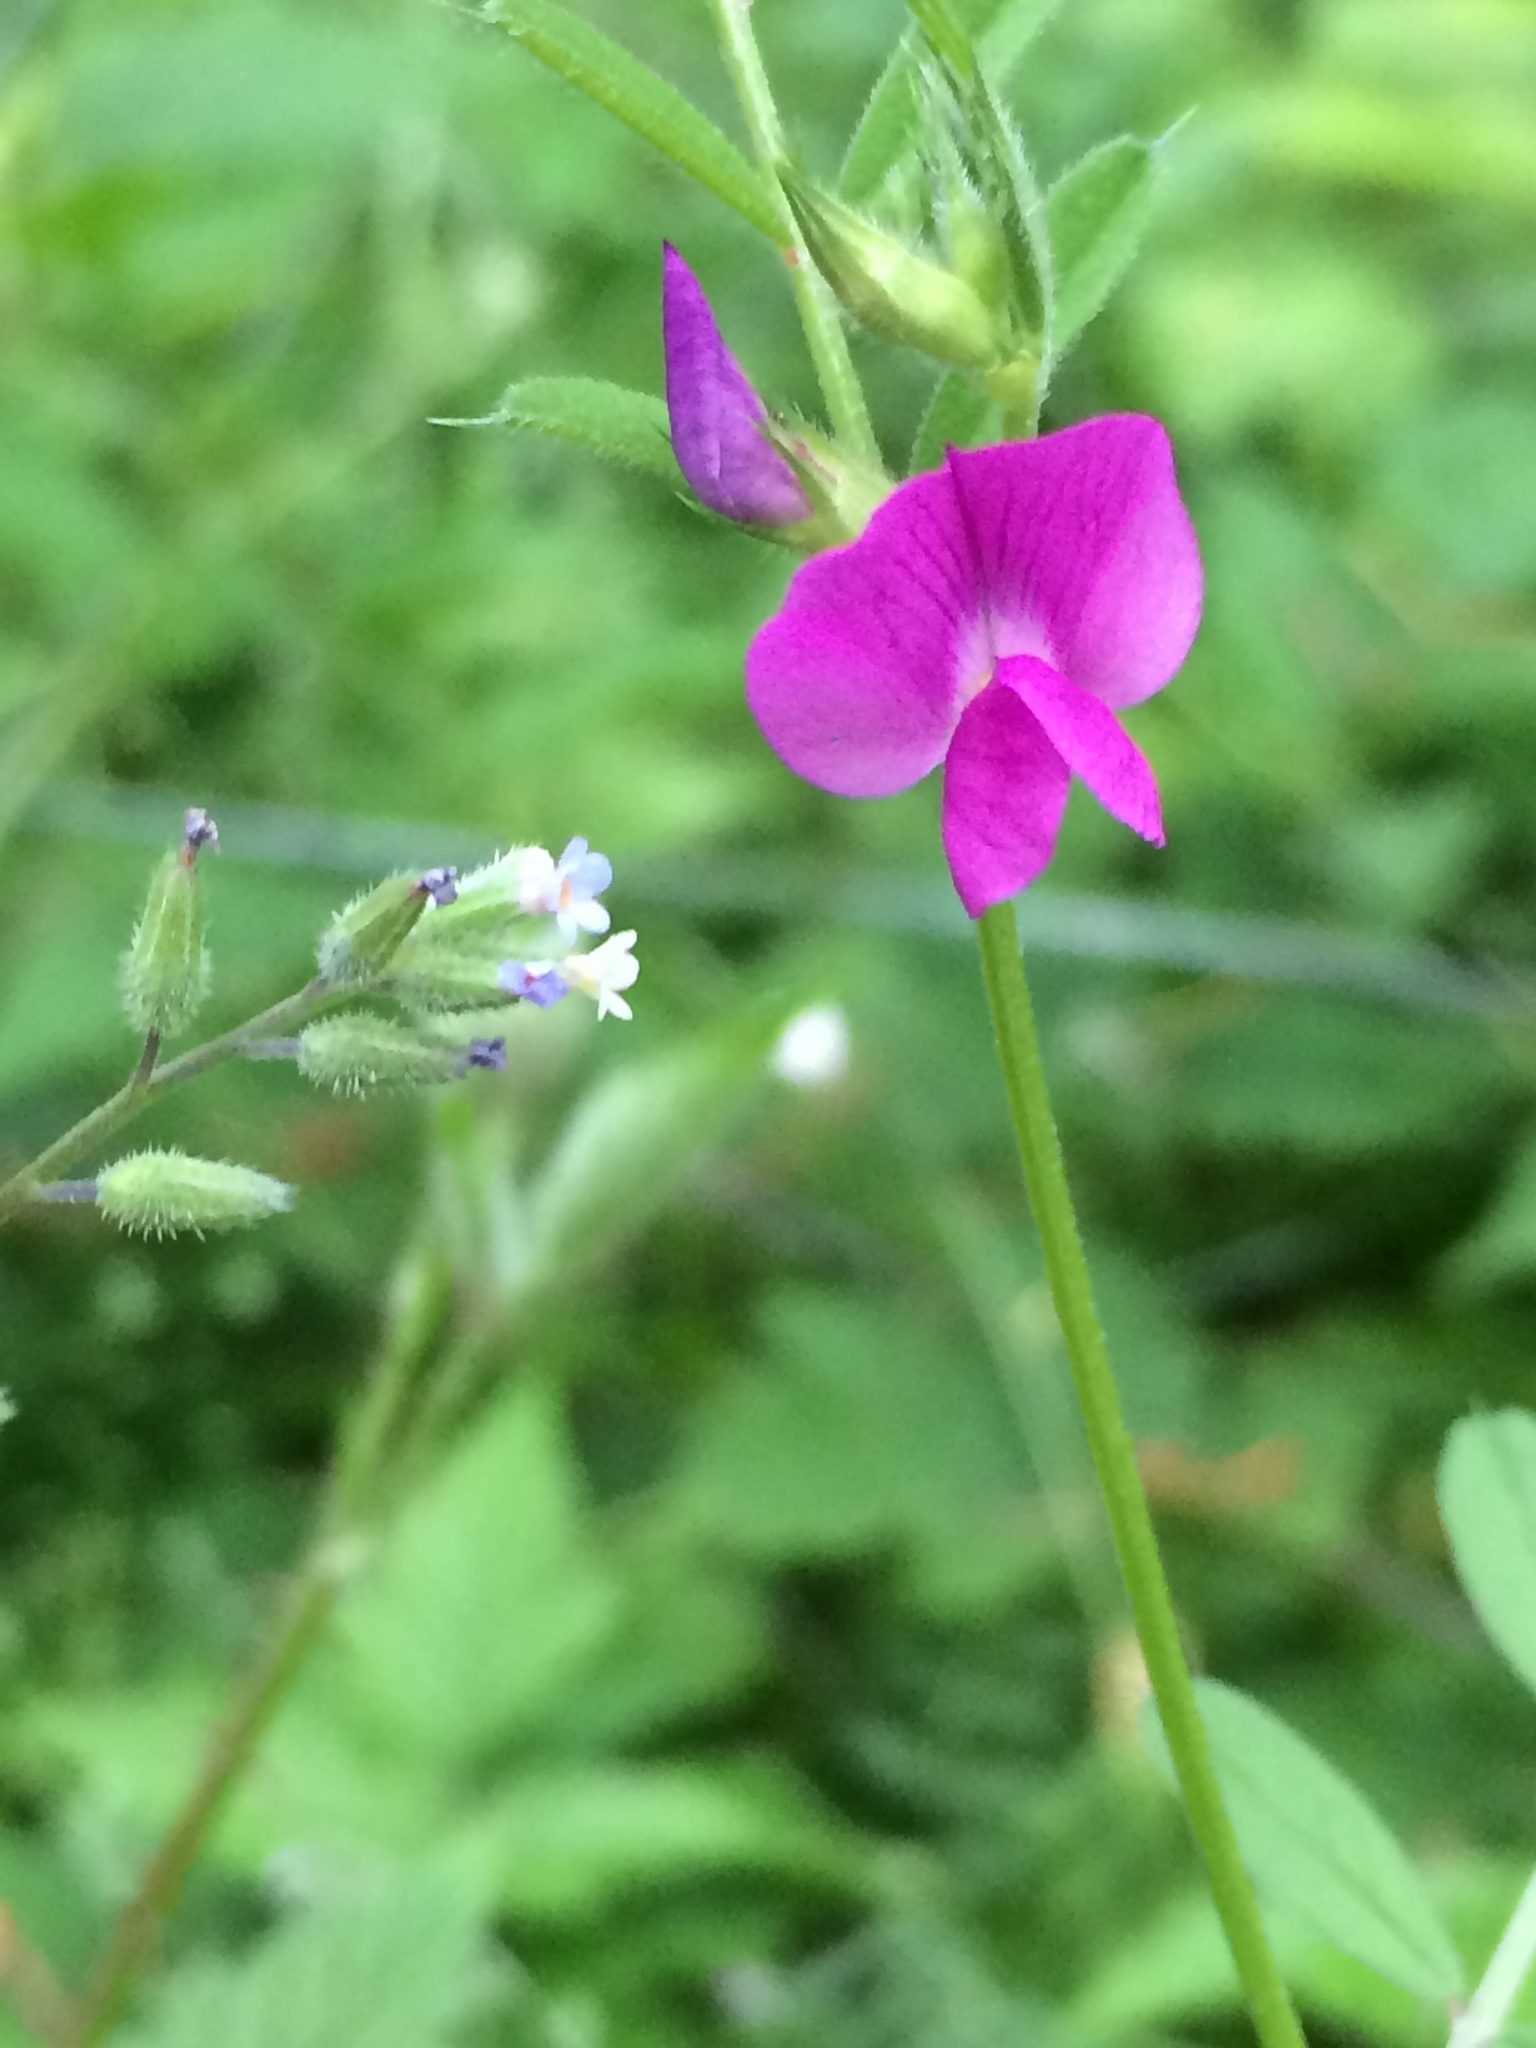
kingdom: Plantae
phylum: Tracheophyta
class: Magnoliopsida
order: Boraginales
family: Boraginaceae
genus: Myosotis
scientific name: Myosotis discolor
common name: Changing forget-me-not
